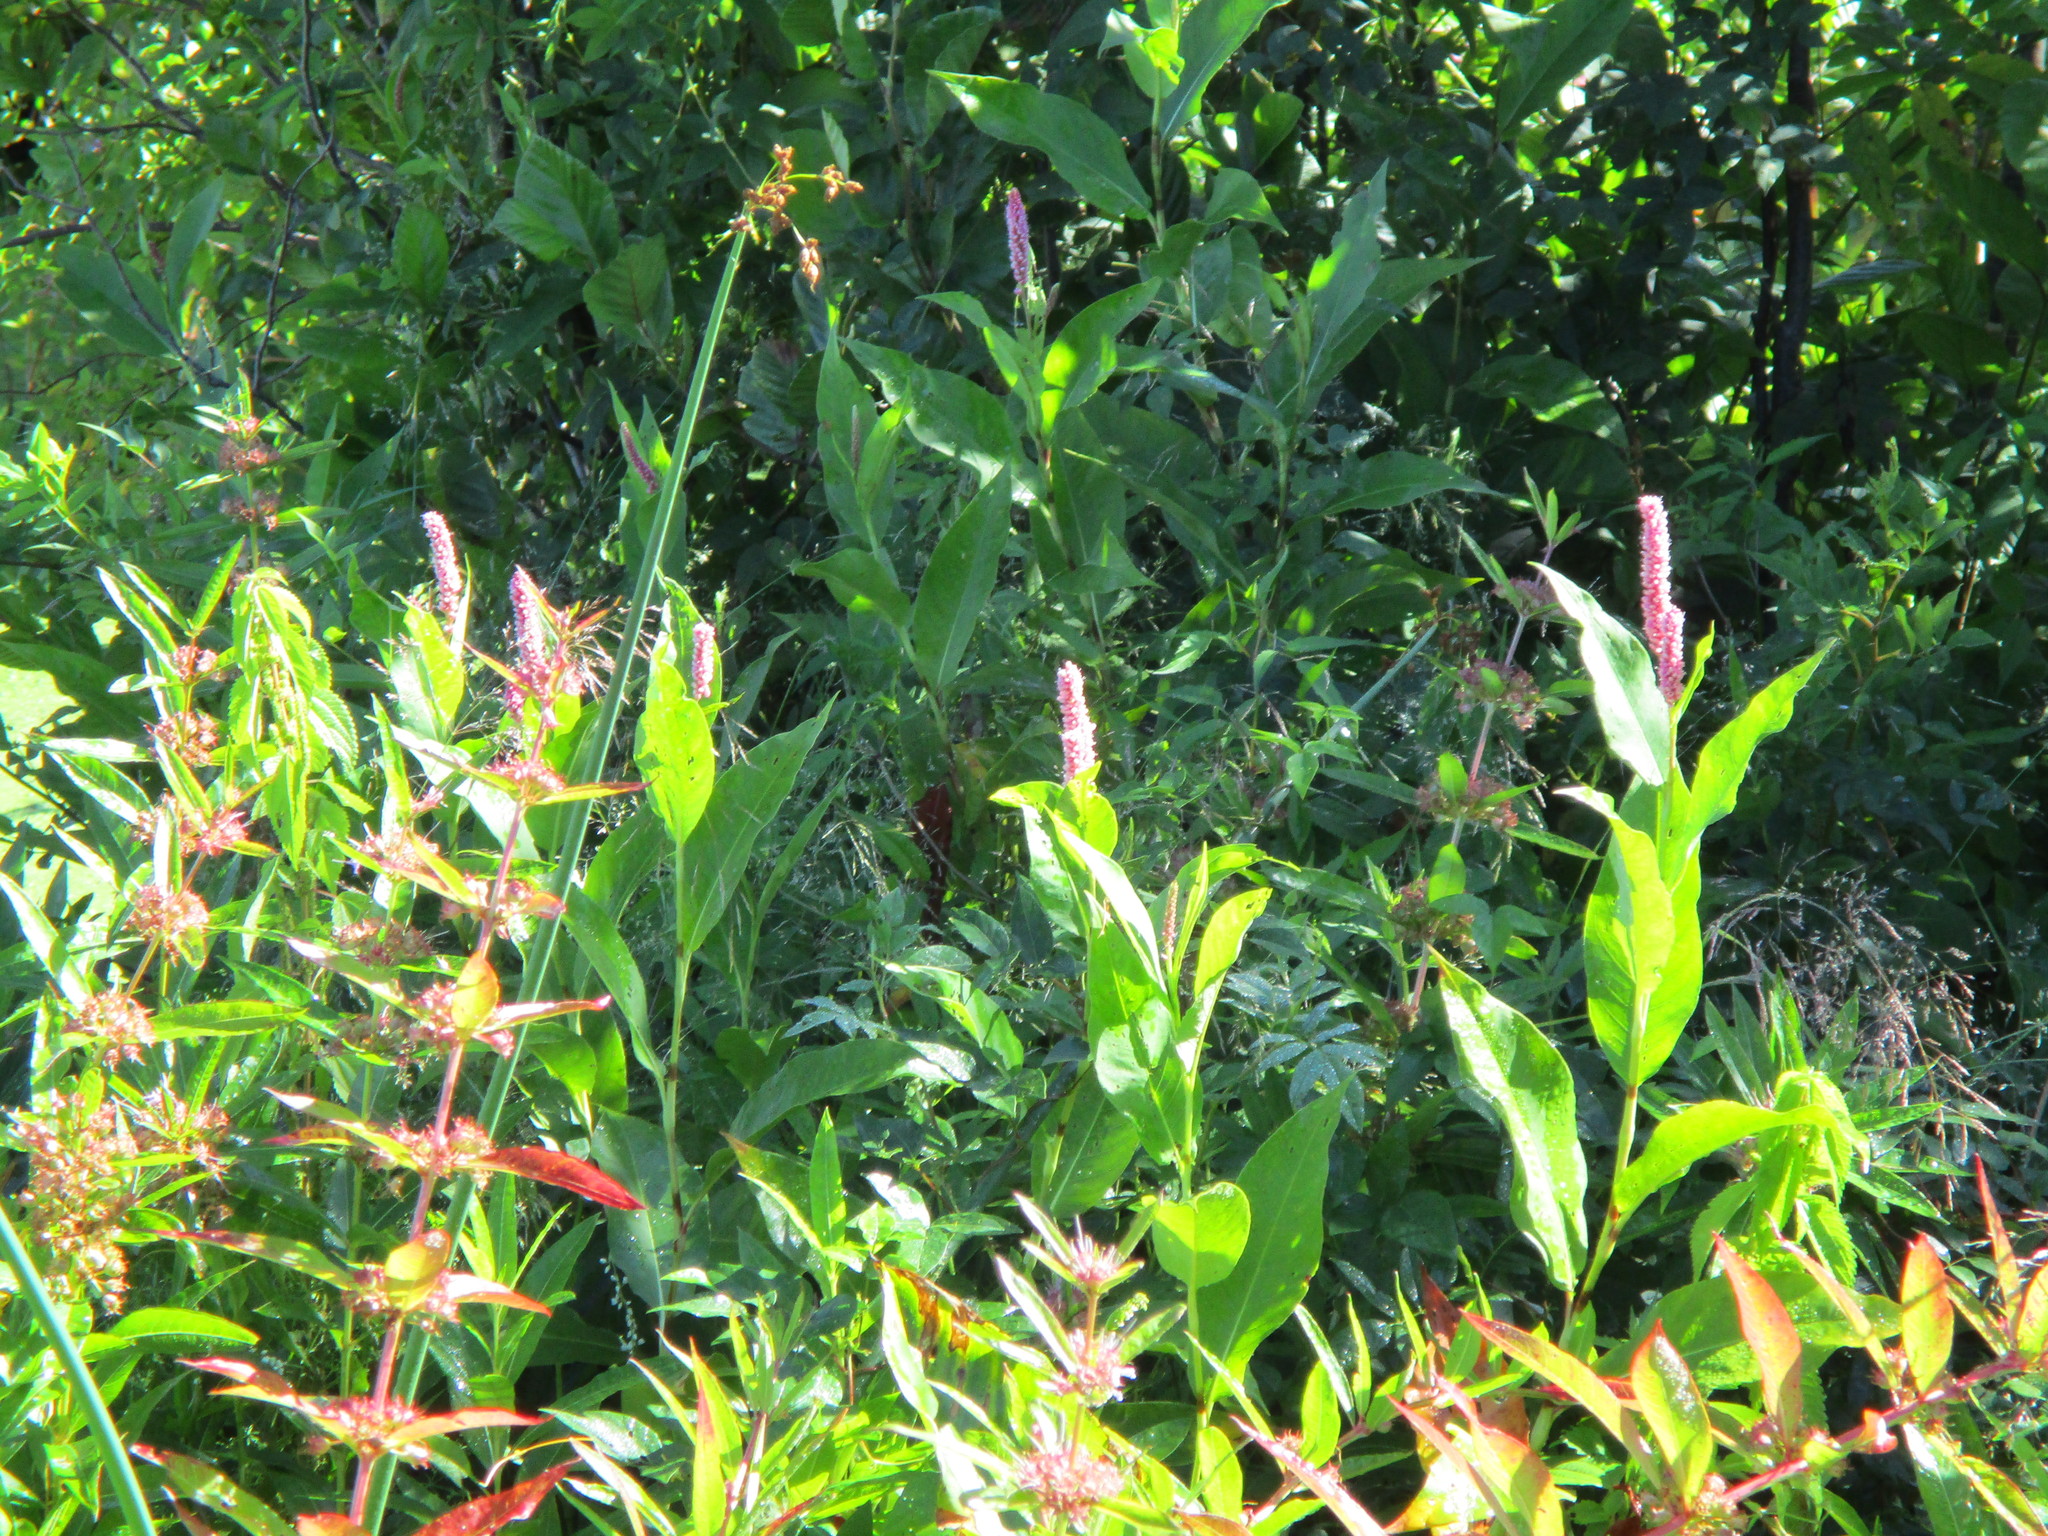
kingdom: Plantae
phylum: Tracheophyta
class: Magnoliopsida
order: Caryophyllales
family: Polygonaceae
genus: Persicaria
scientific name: Persicaria amphibia
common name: Amphibious bistort
